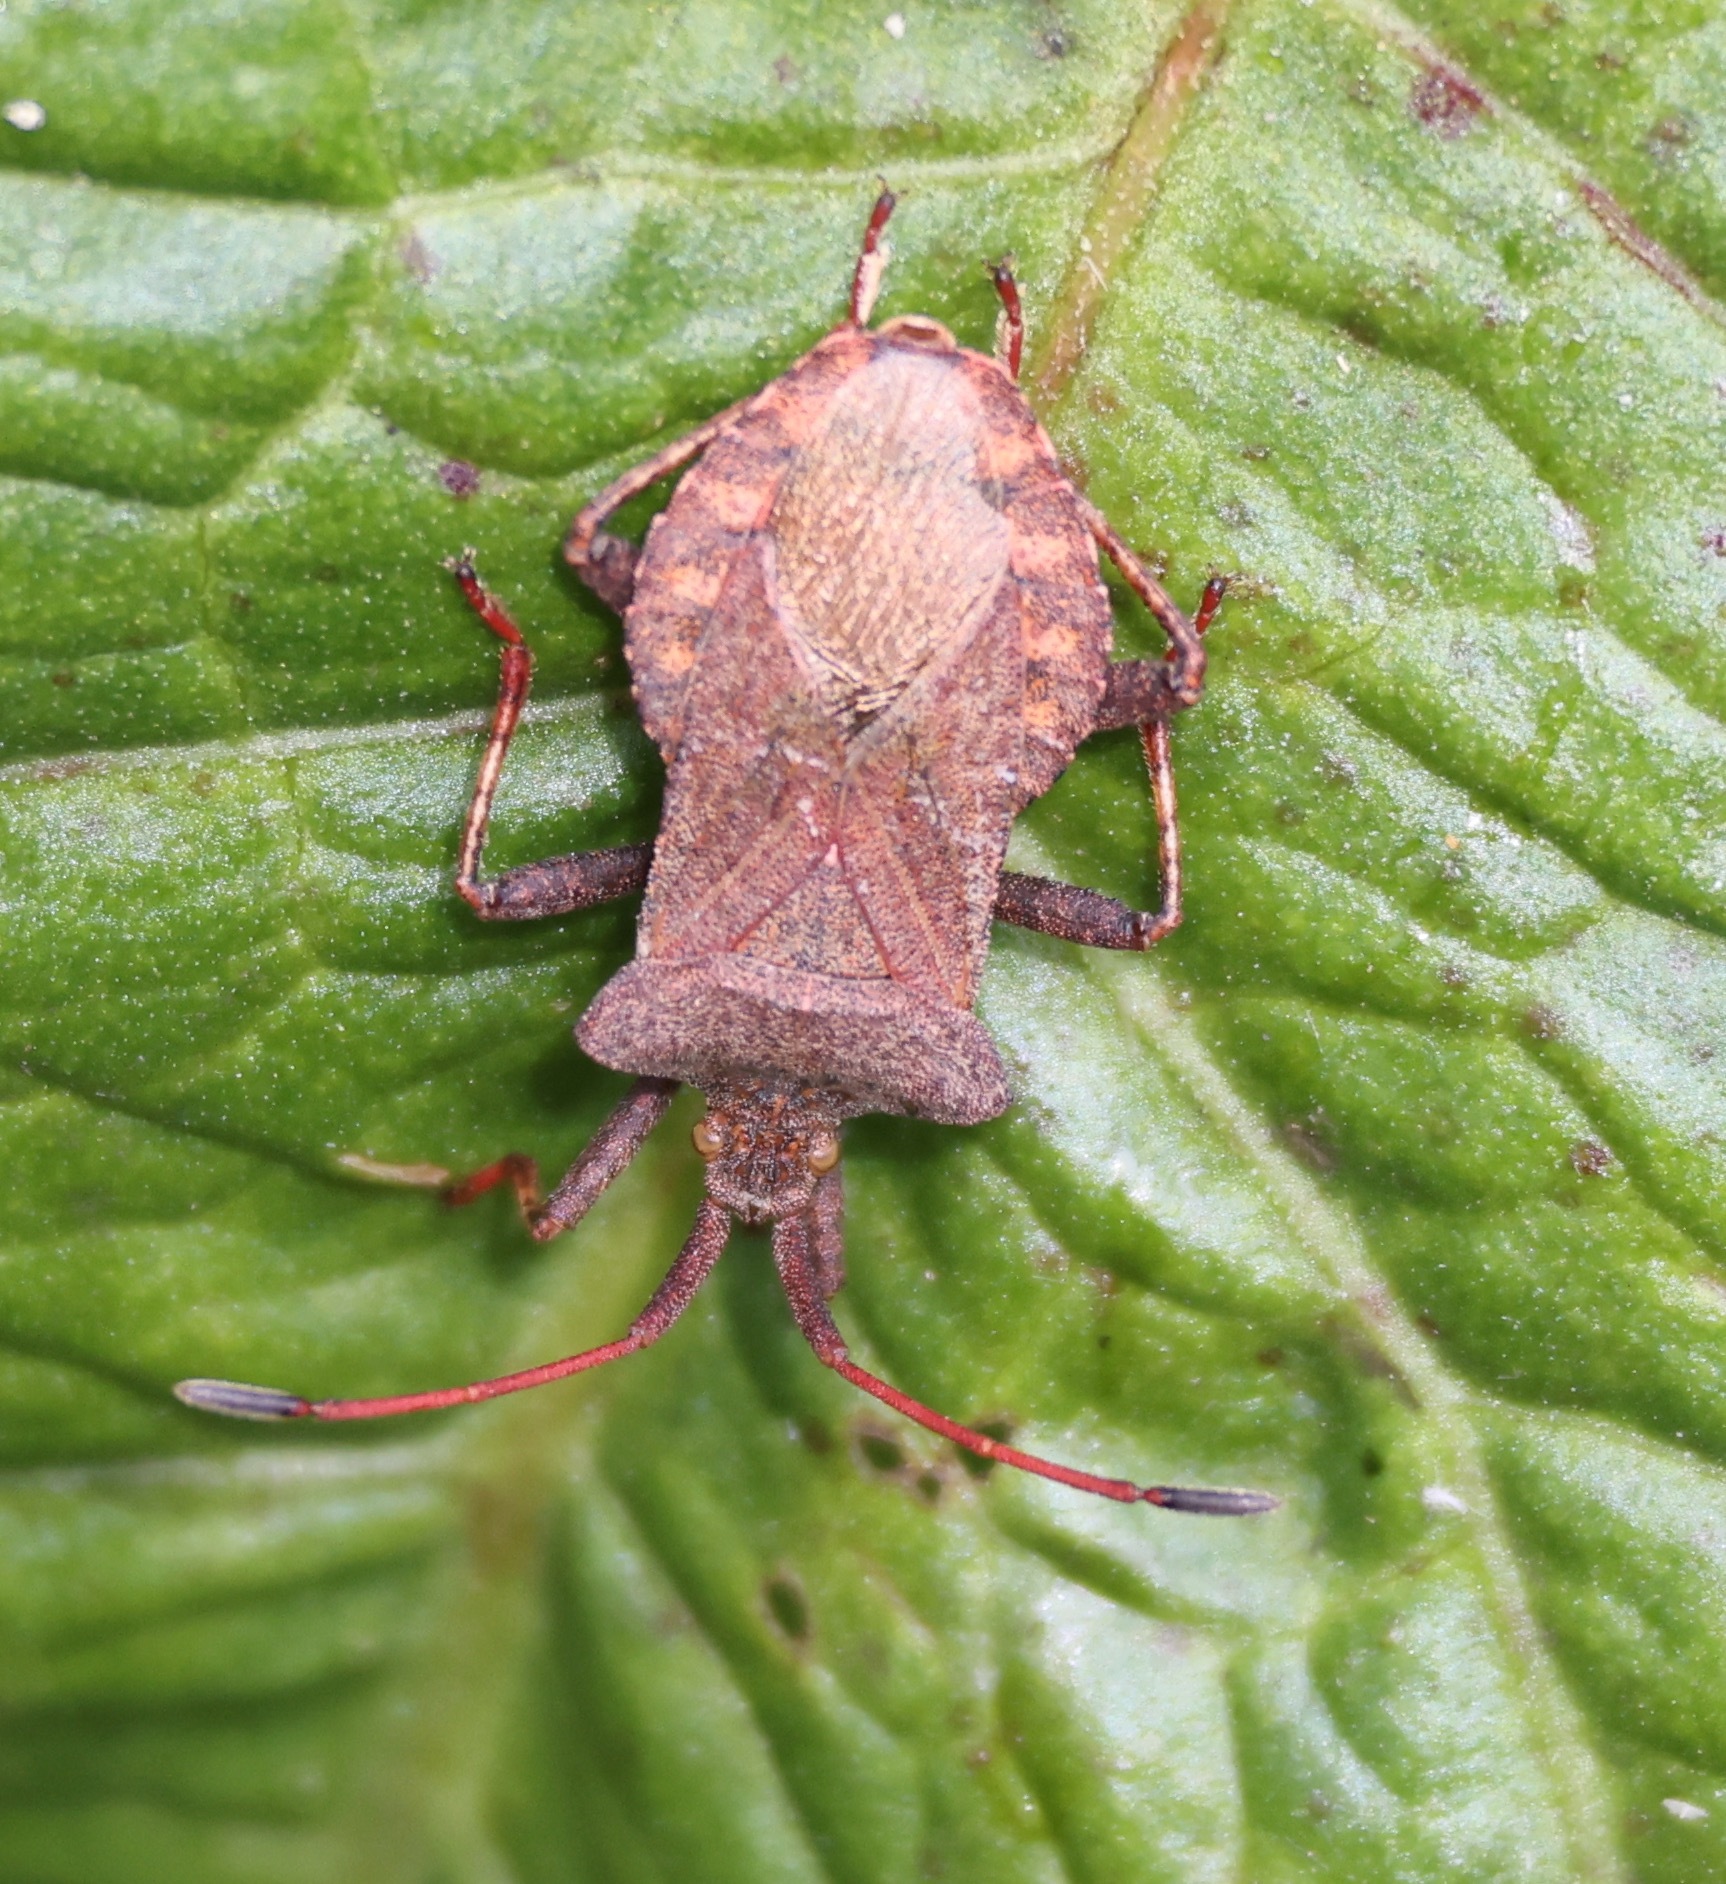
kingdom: Animalia
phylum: Arthropoda
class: Insecta
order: Hemiptera
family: Coreidae
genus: Coreus
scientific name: Coreus marginatus
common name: Dock bug
